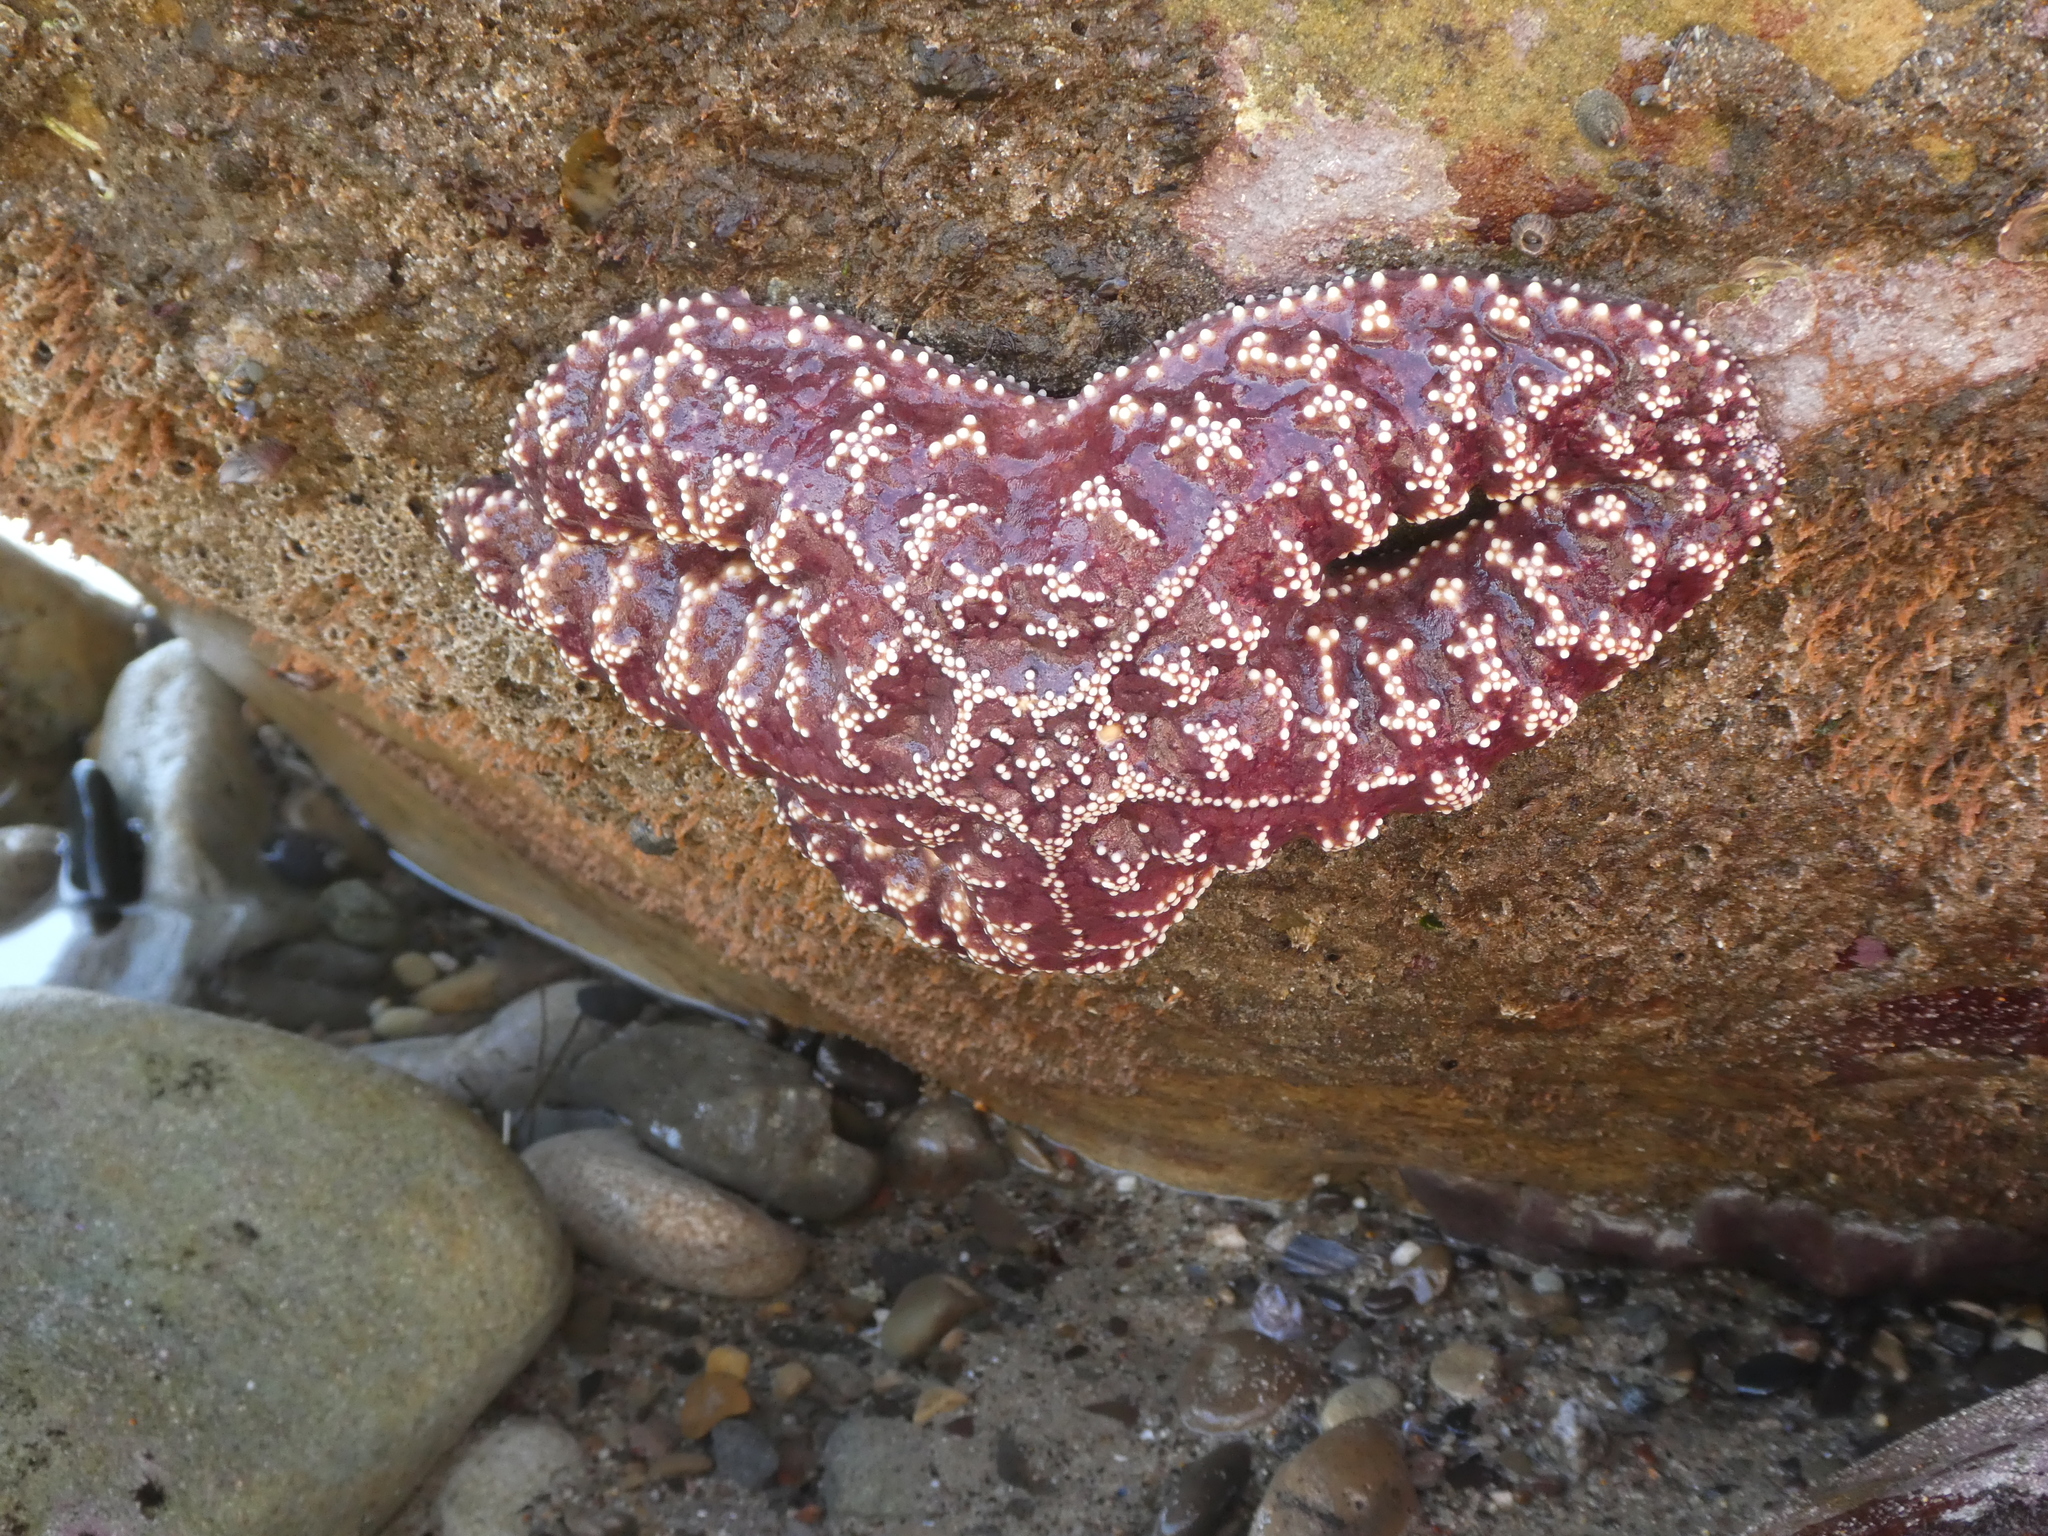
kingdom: Animalia
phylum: Echinodermata
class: Asteroidea
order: Forcipulatida
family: Asteriidae
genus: Pisaster
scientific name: Pisaster ochraceus
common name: Ochre stars
